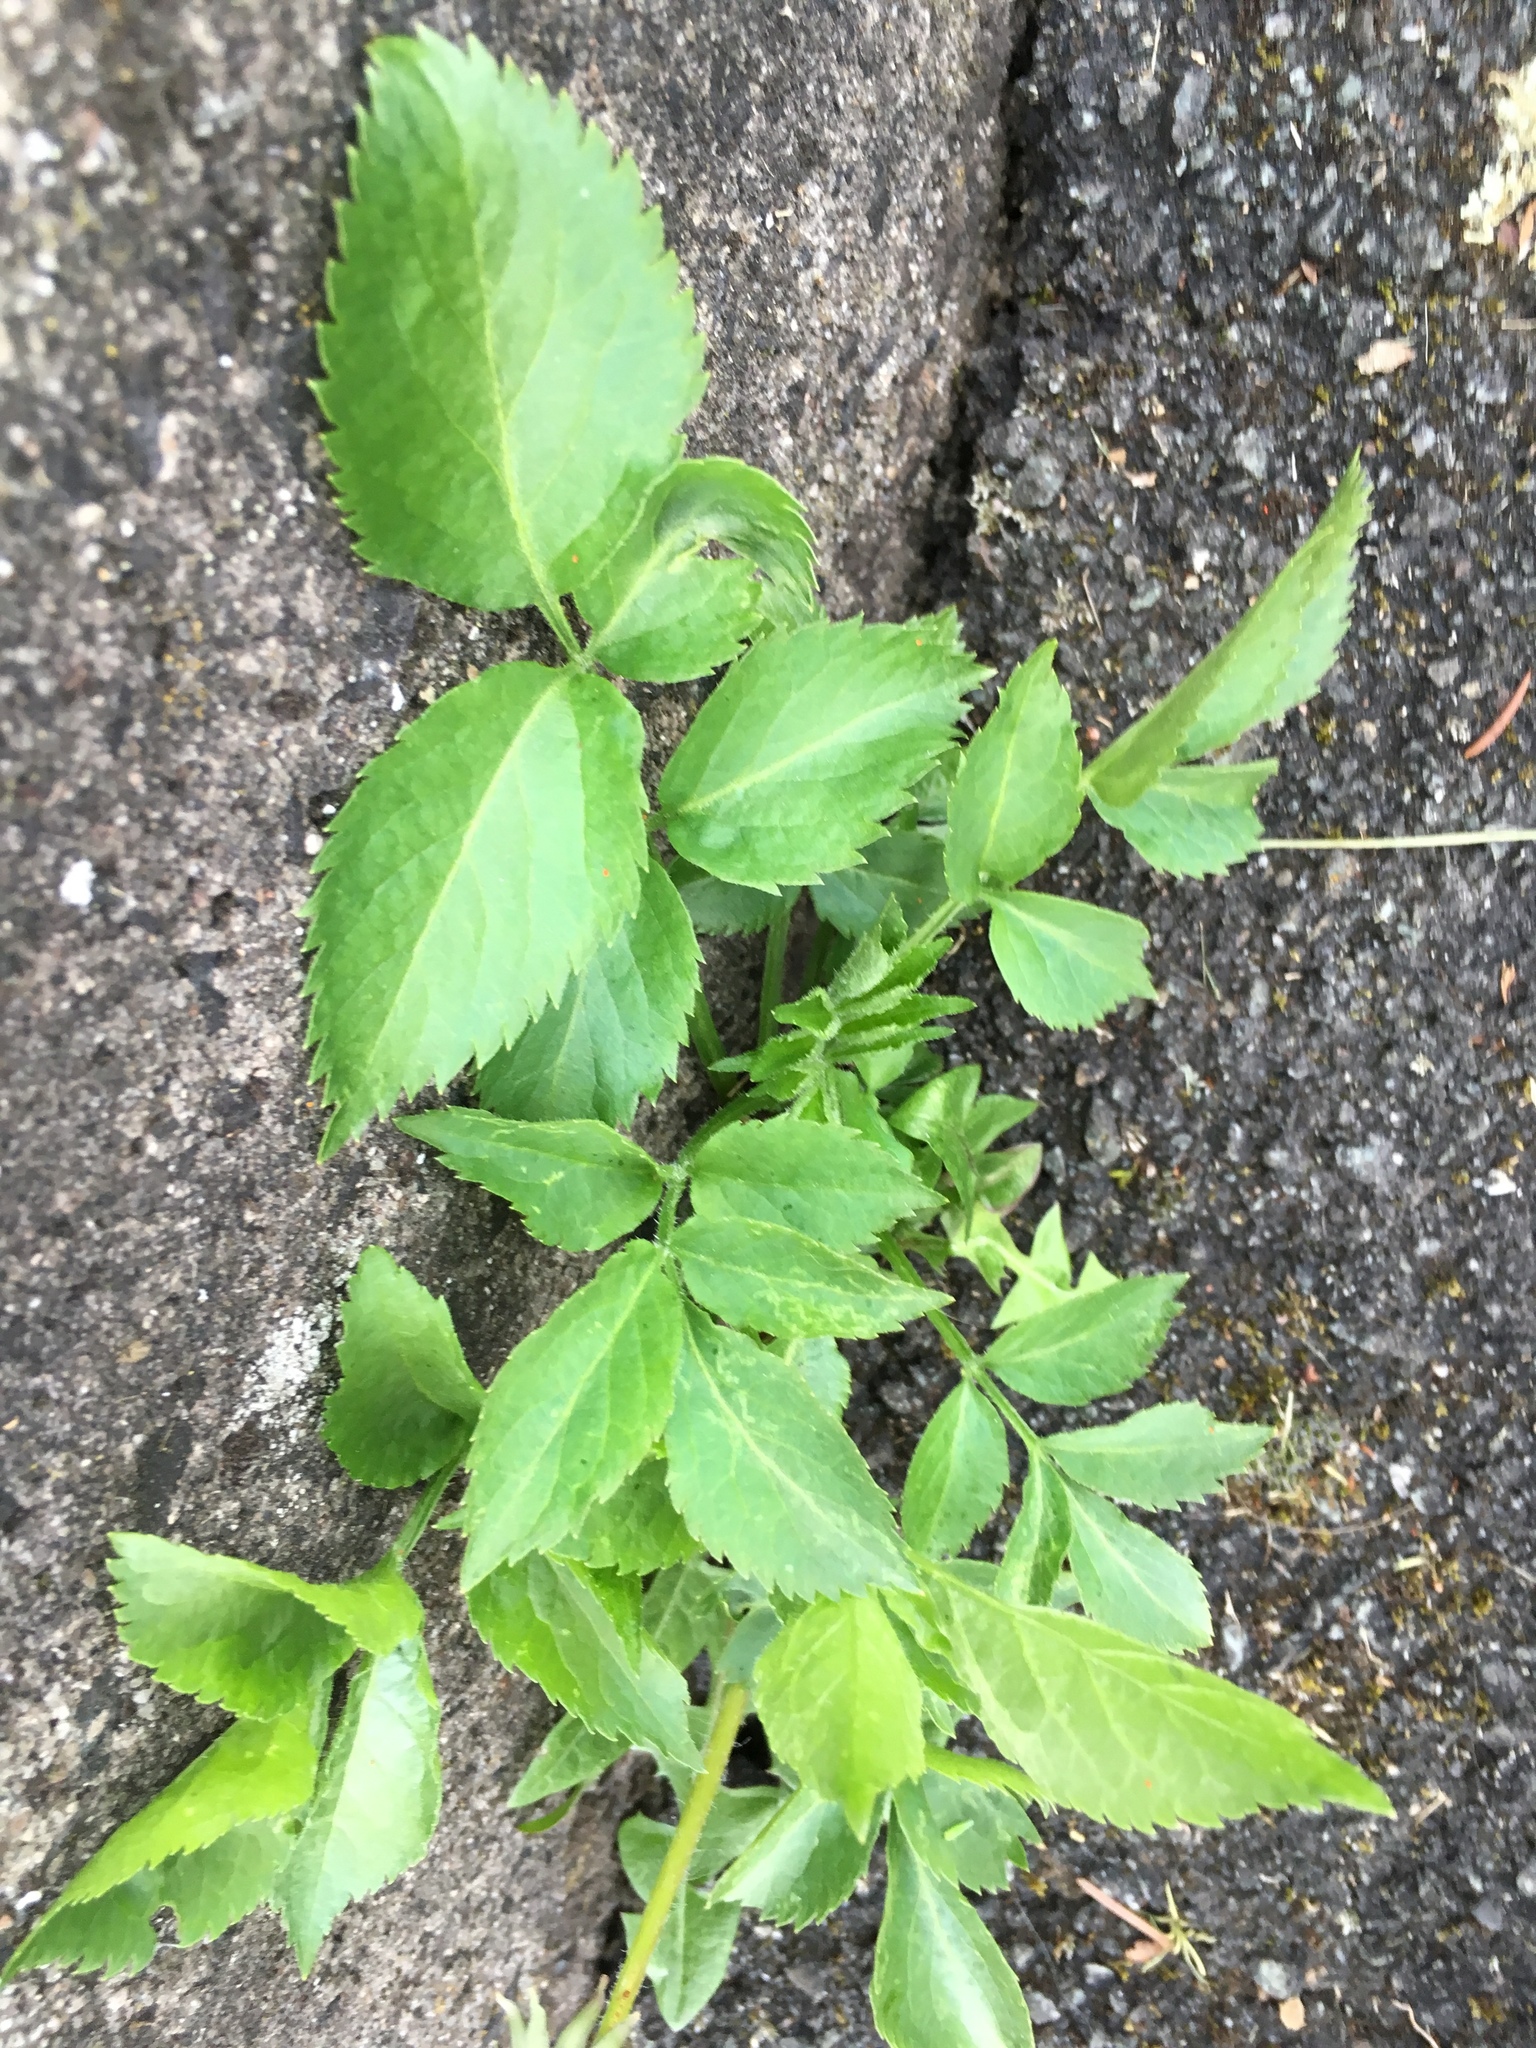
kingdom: Plantae
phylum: Tracheophyta
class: Magnoliopsida
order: Dipsacales
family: Viburnaceae
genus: Sambucus
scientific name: Sambucus nigra
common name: Elder
